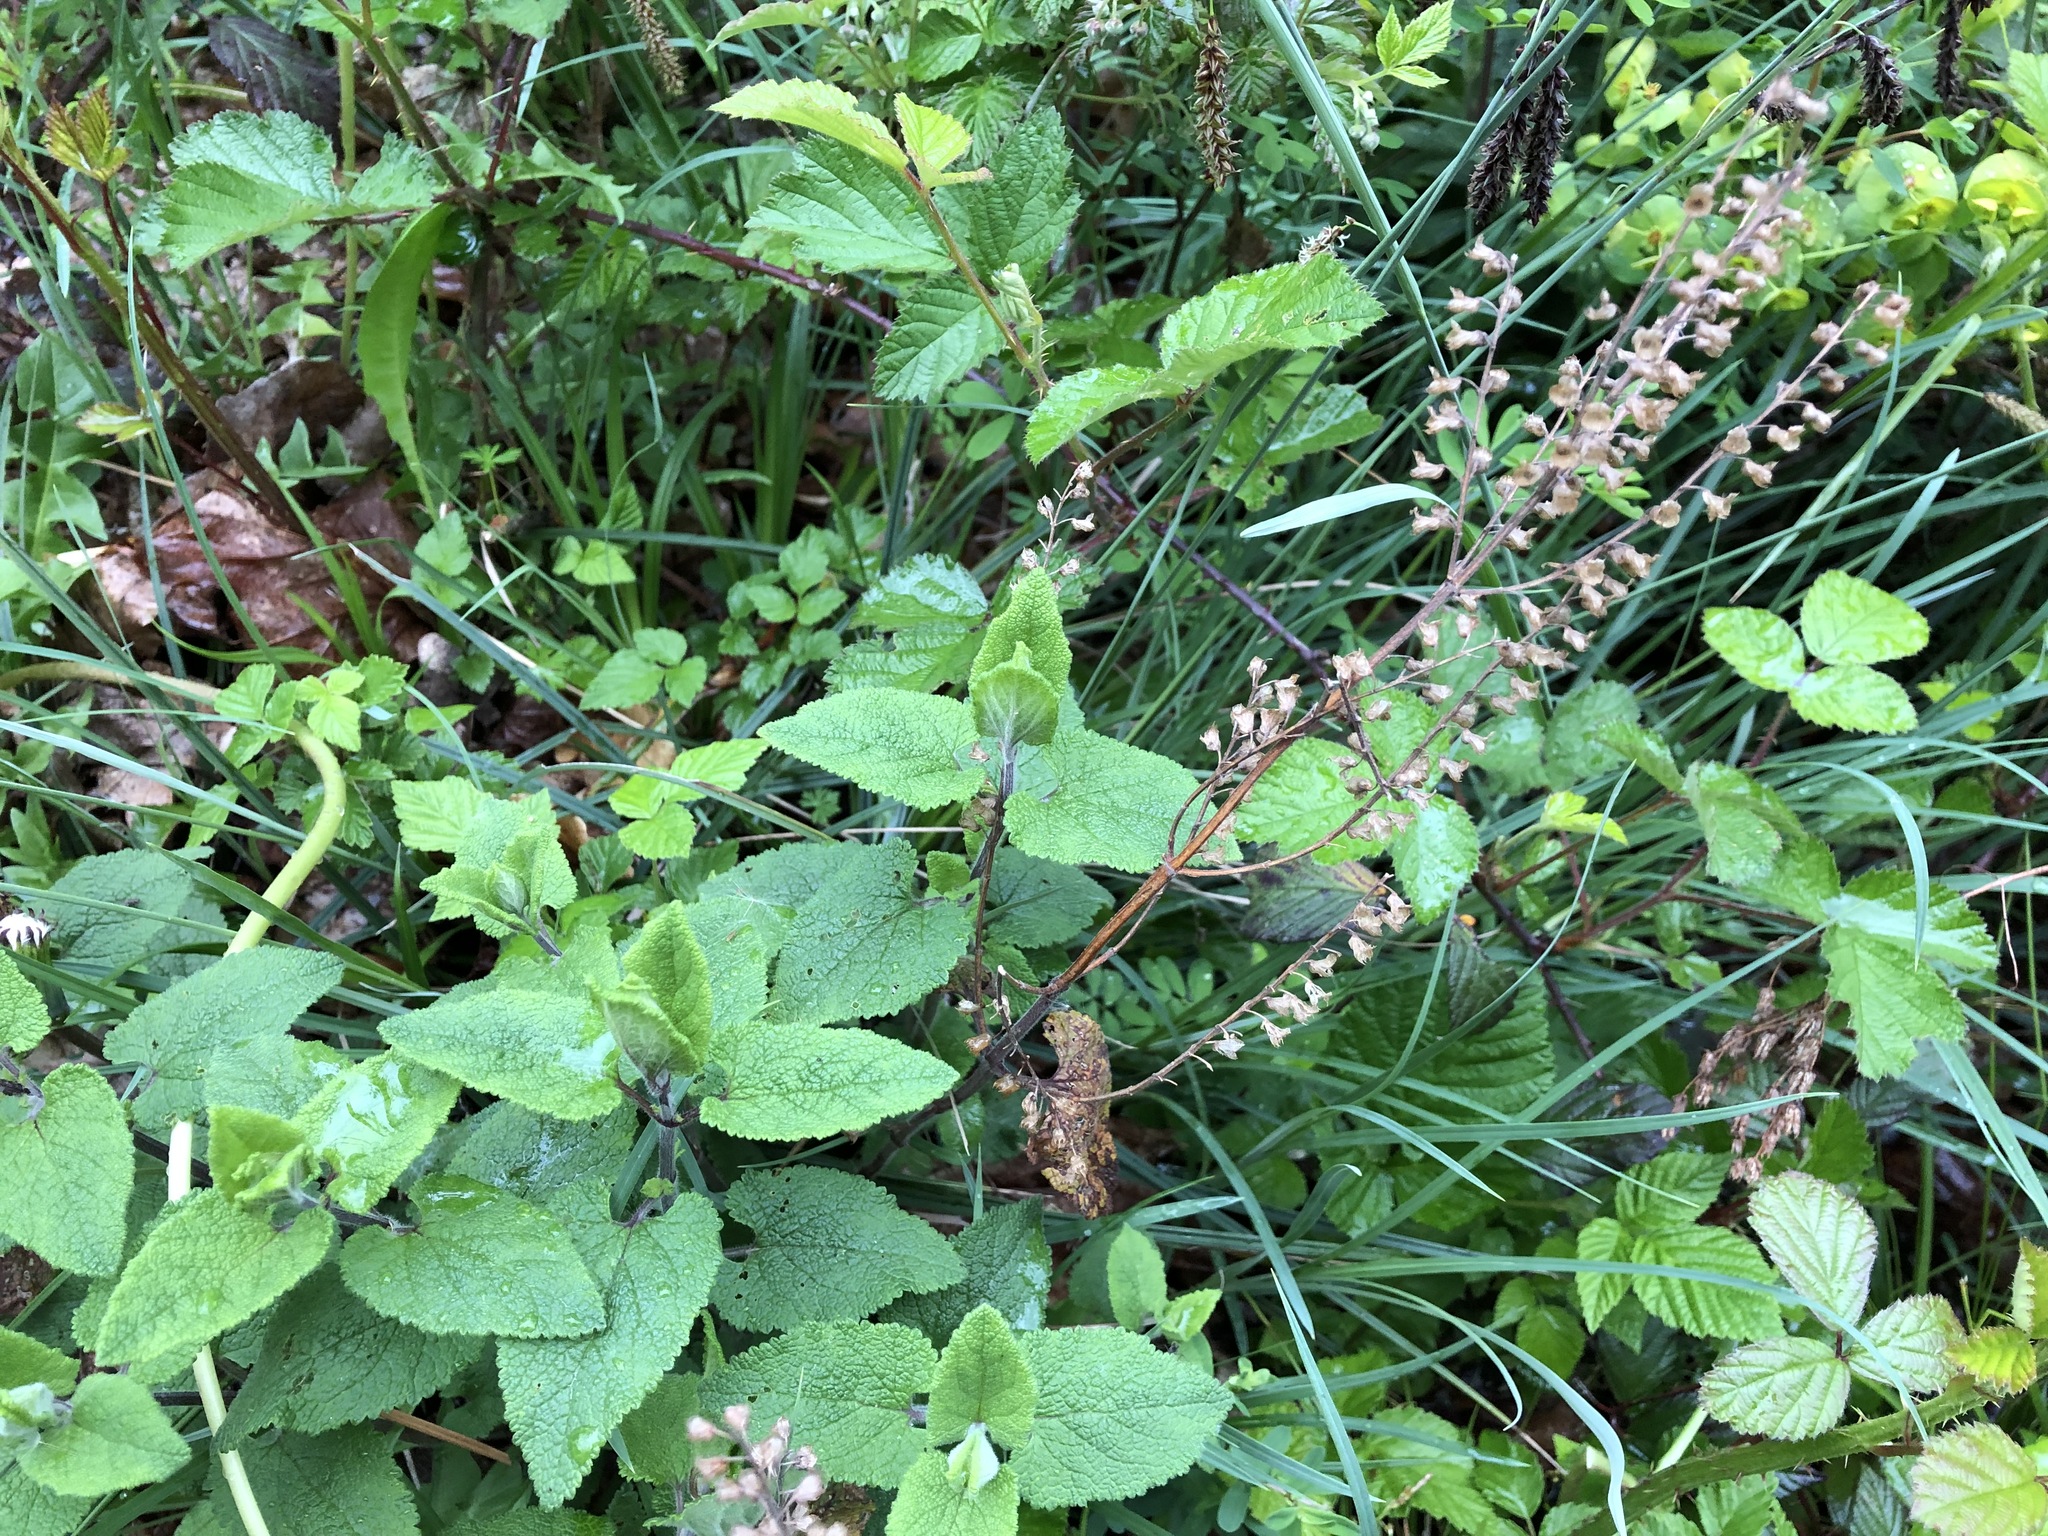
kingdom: Plantae
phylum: Tracheophyta
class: Magnoliopsida
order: Lamiales
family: Lamiaceae
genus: Teucrium
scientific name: Teucrium scorodonia
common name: Woodland germander
